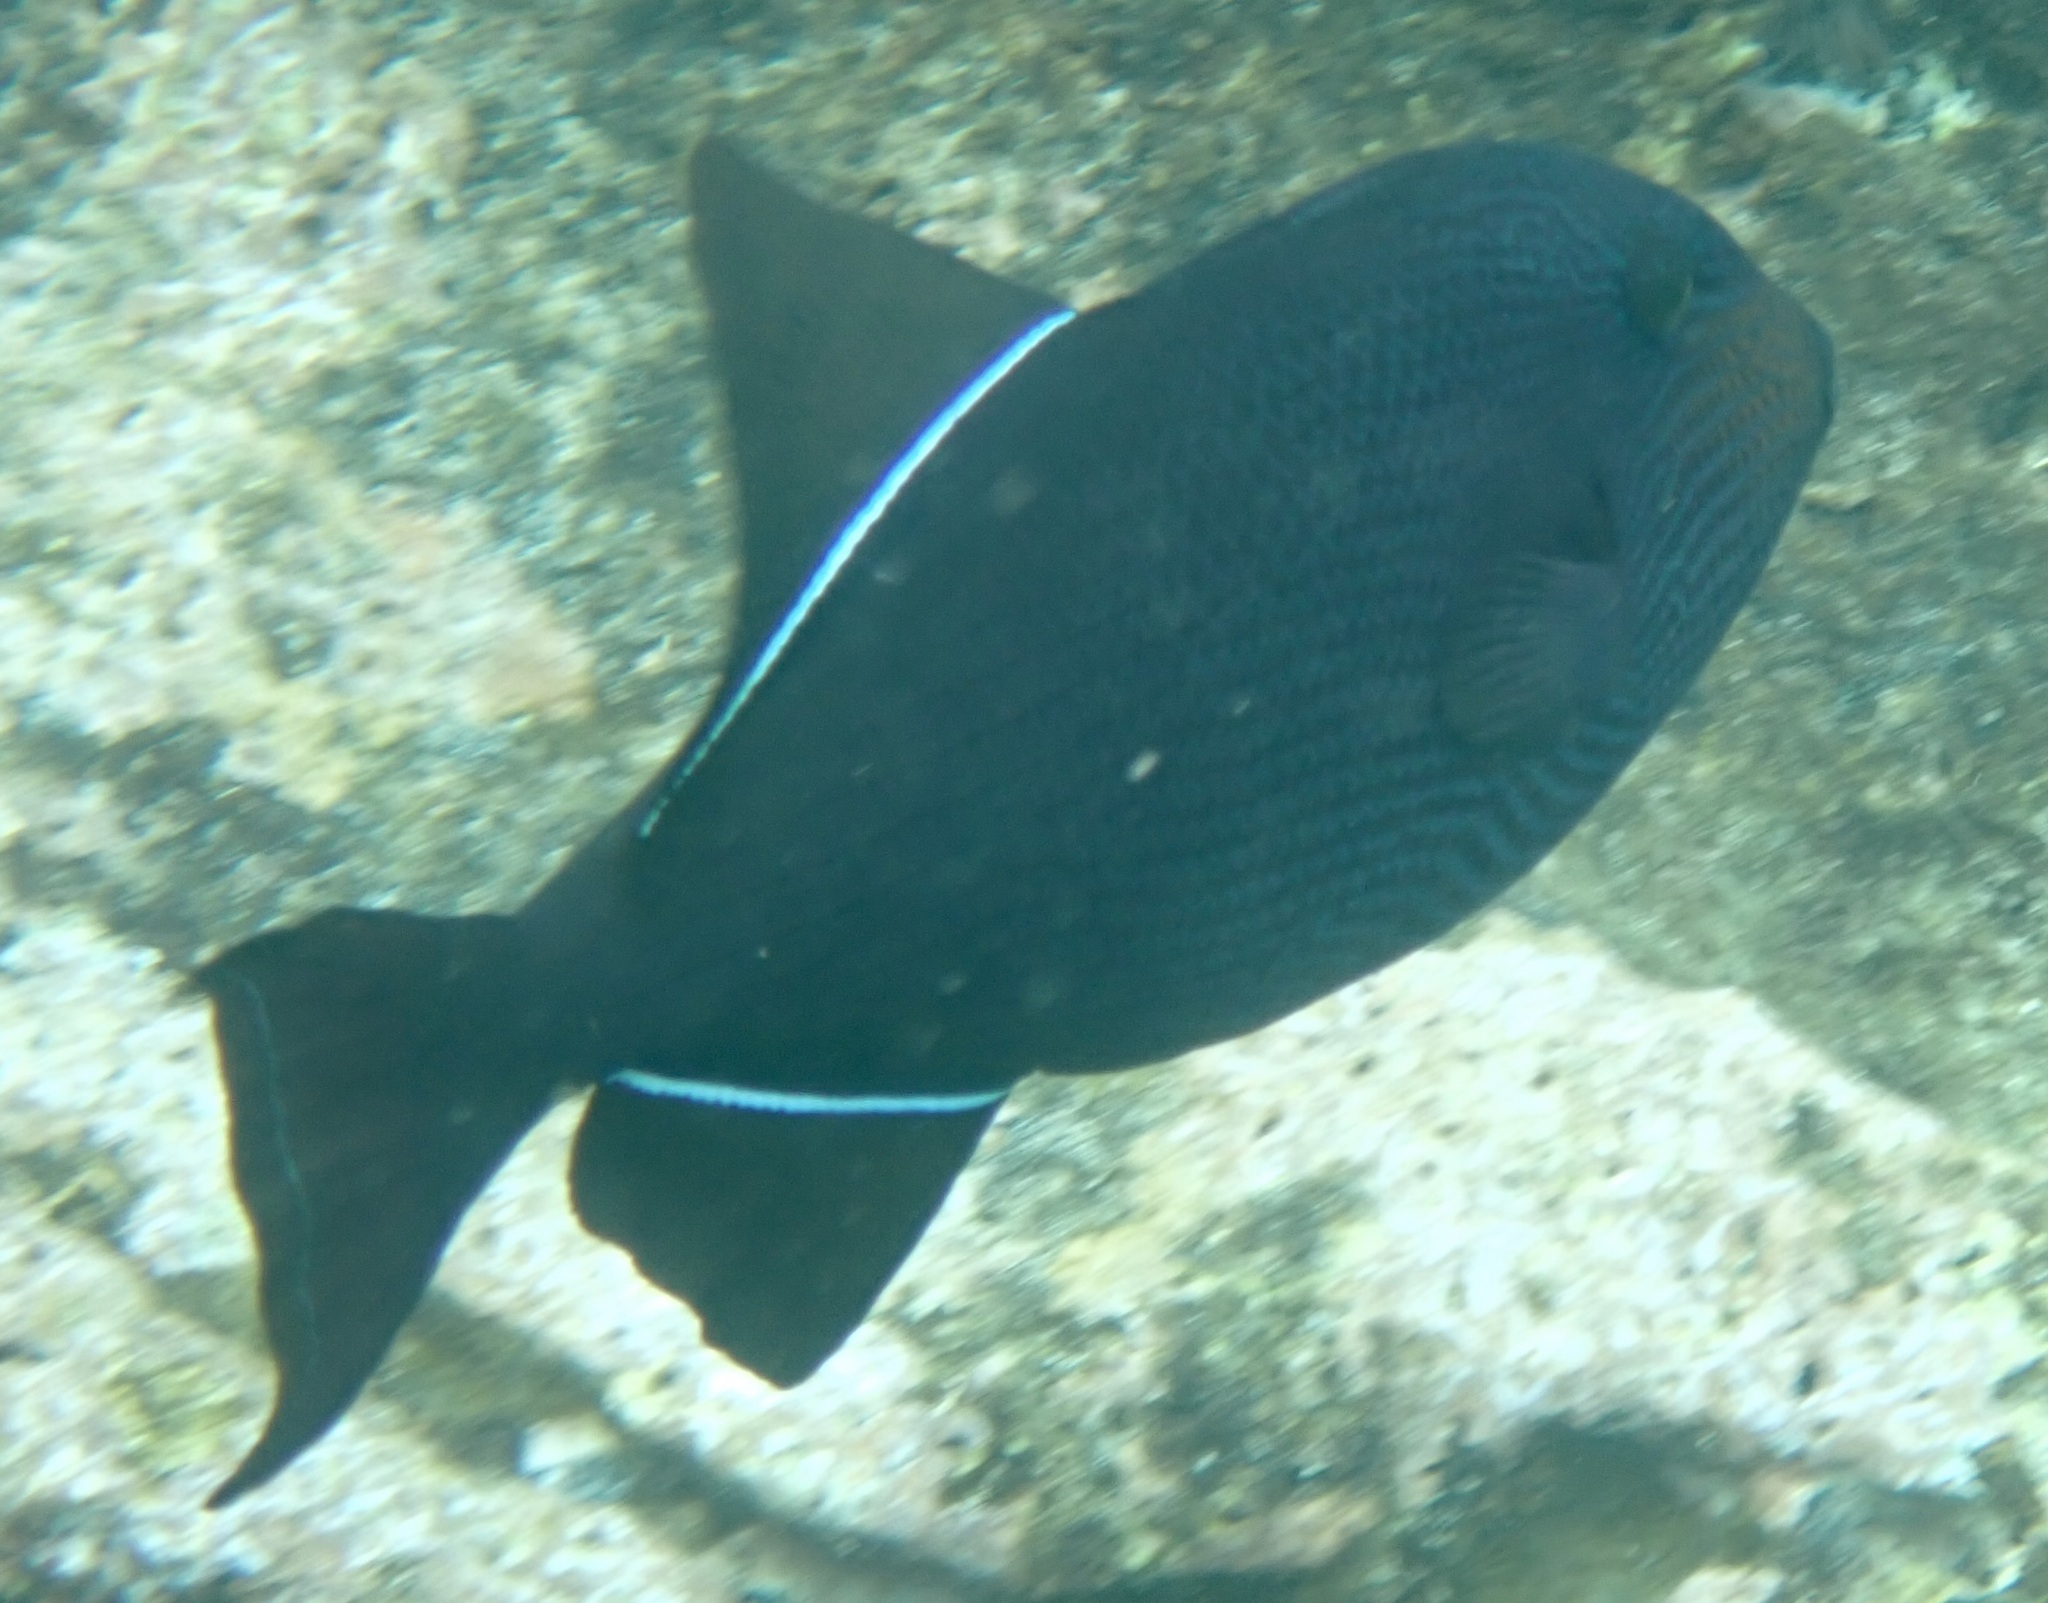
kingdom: Animalia
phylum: Chordata
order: Tetraodontiformes
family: Balistidae
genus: Melichthys
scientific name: Melichthys niger
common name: Black durgon
